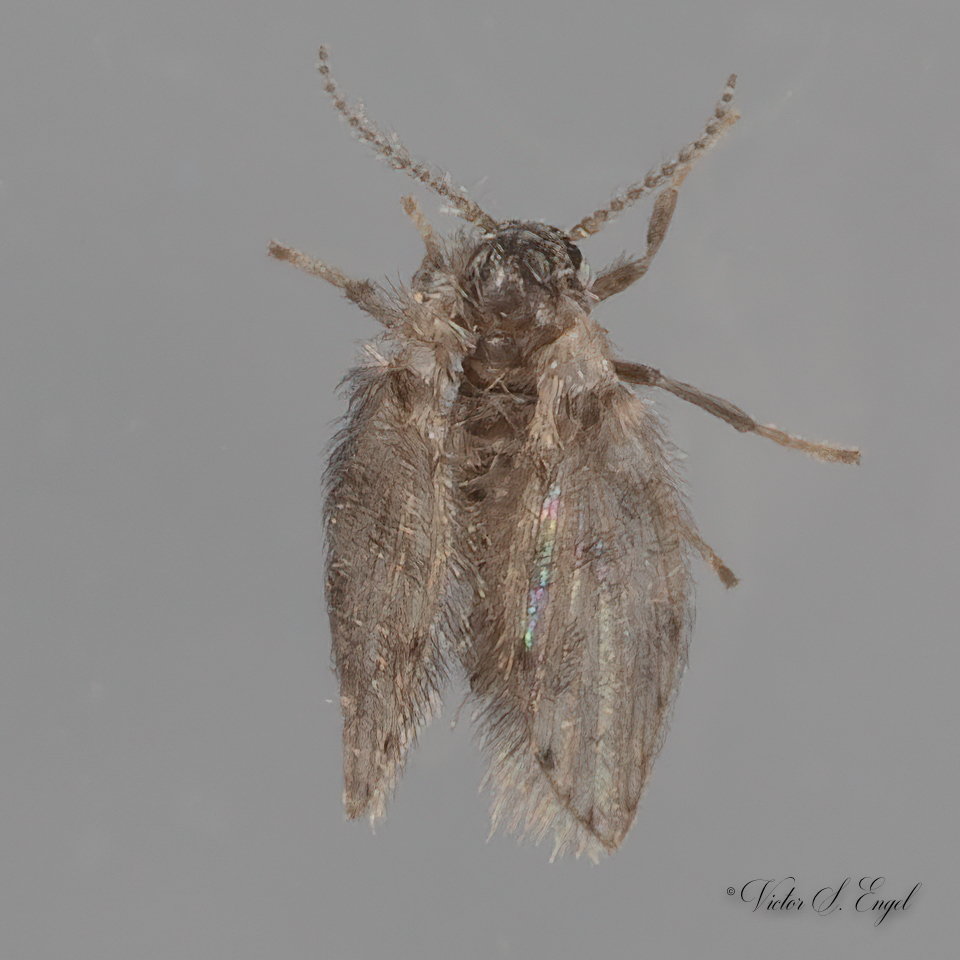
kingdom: Animalia
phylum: Arthropoda
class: Insecta
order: Diptera
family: Psychodidae
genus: Psychoda
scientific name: Psychoda alternata
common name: Moth fly
